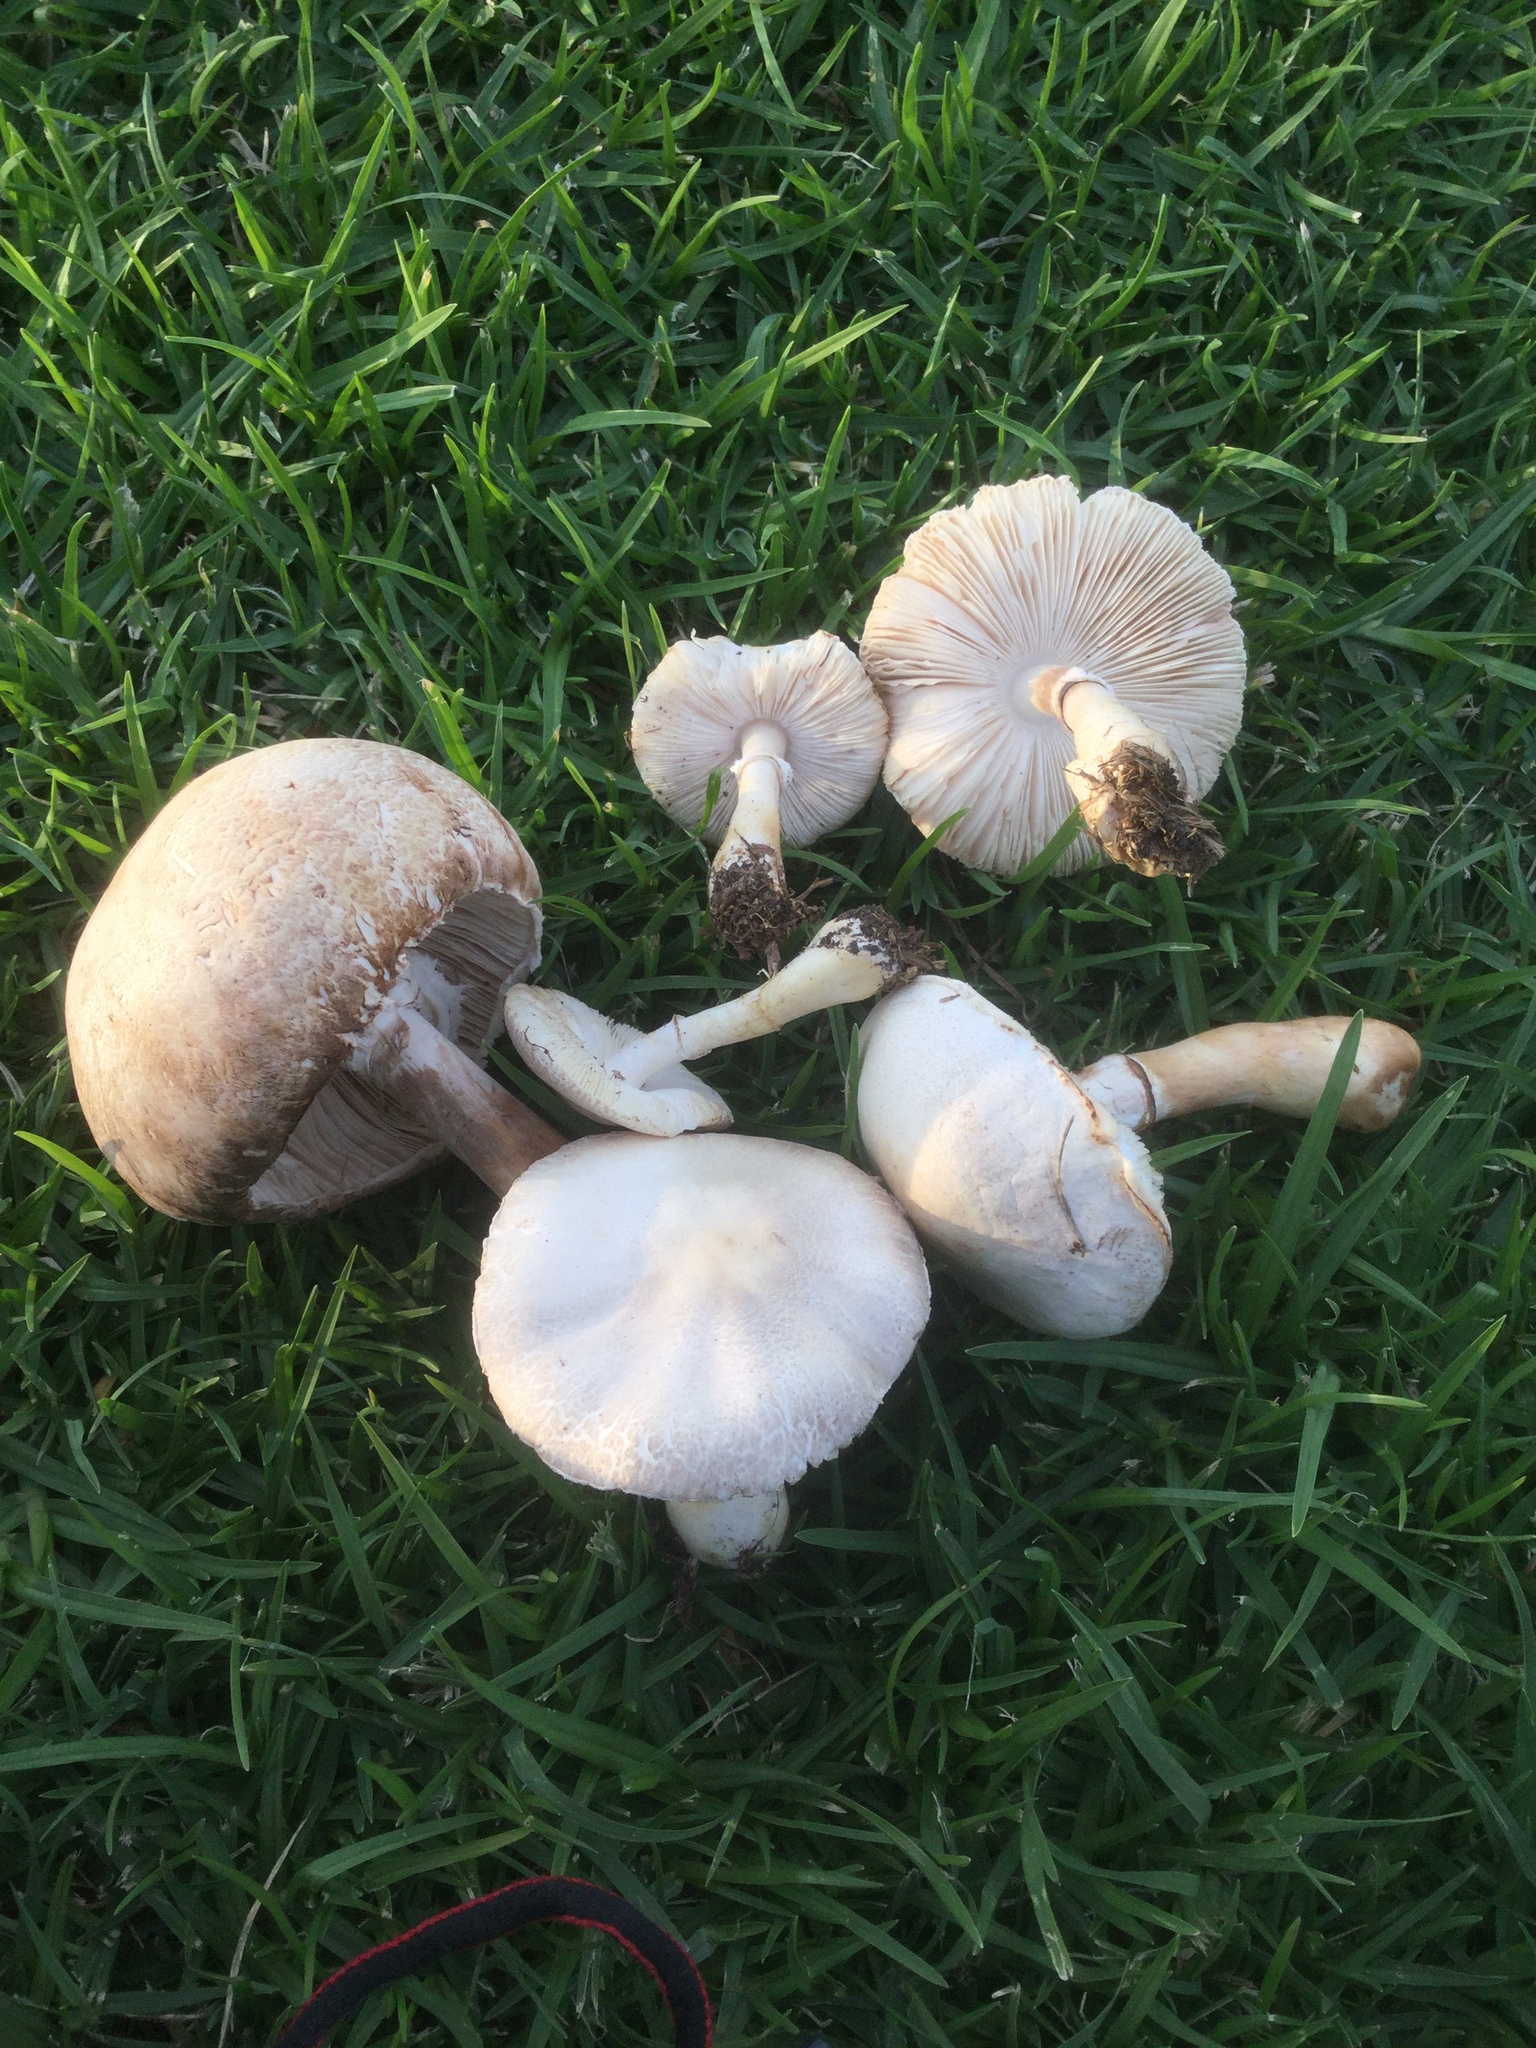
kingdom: Fungi
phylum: Basidiomycota
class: Agaricomycetes
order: Agaricales
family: Agaricaceae
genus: Leucoagaricus
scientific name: Leucoagaricus leucothites
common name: White dapperling
